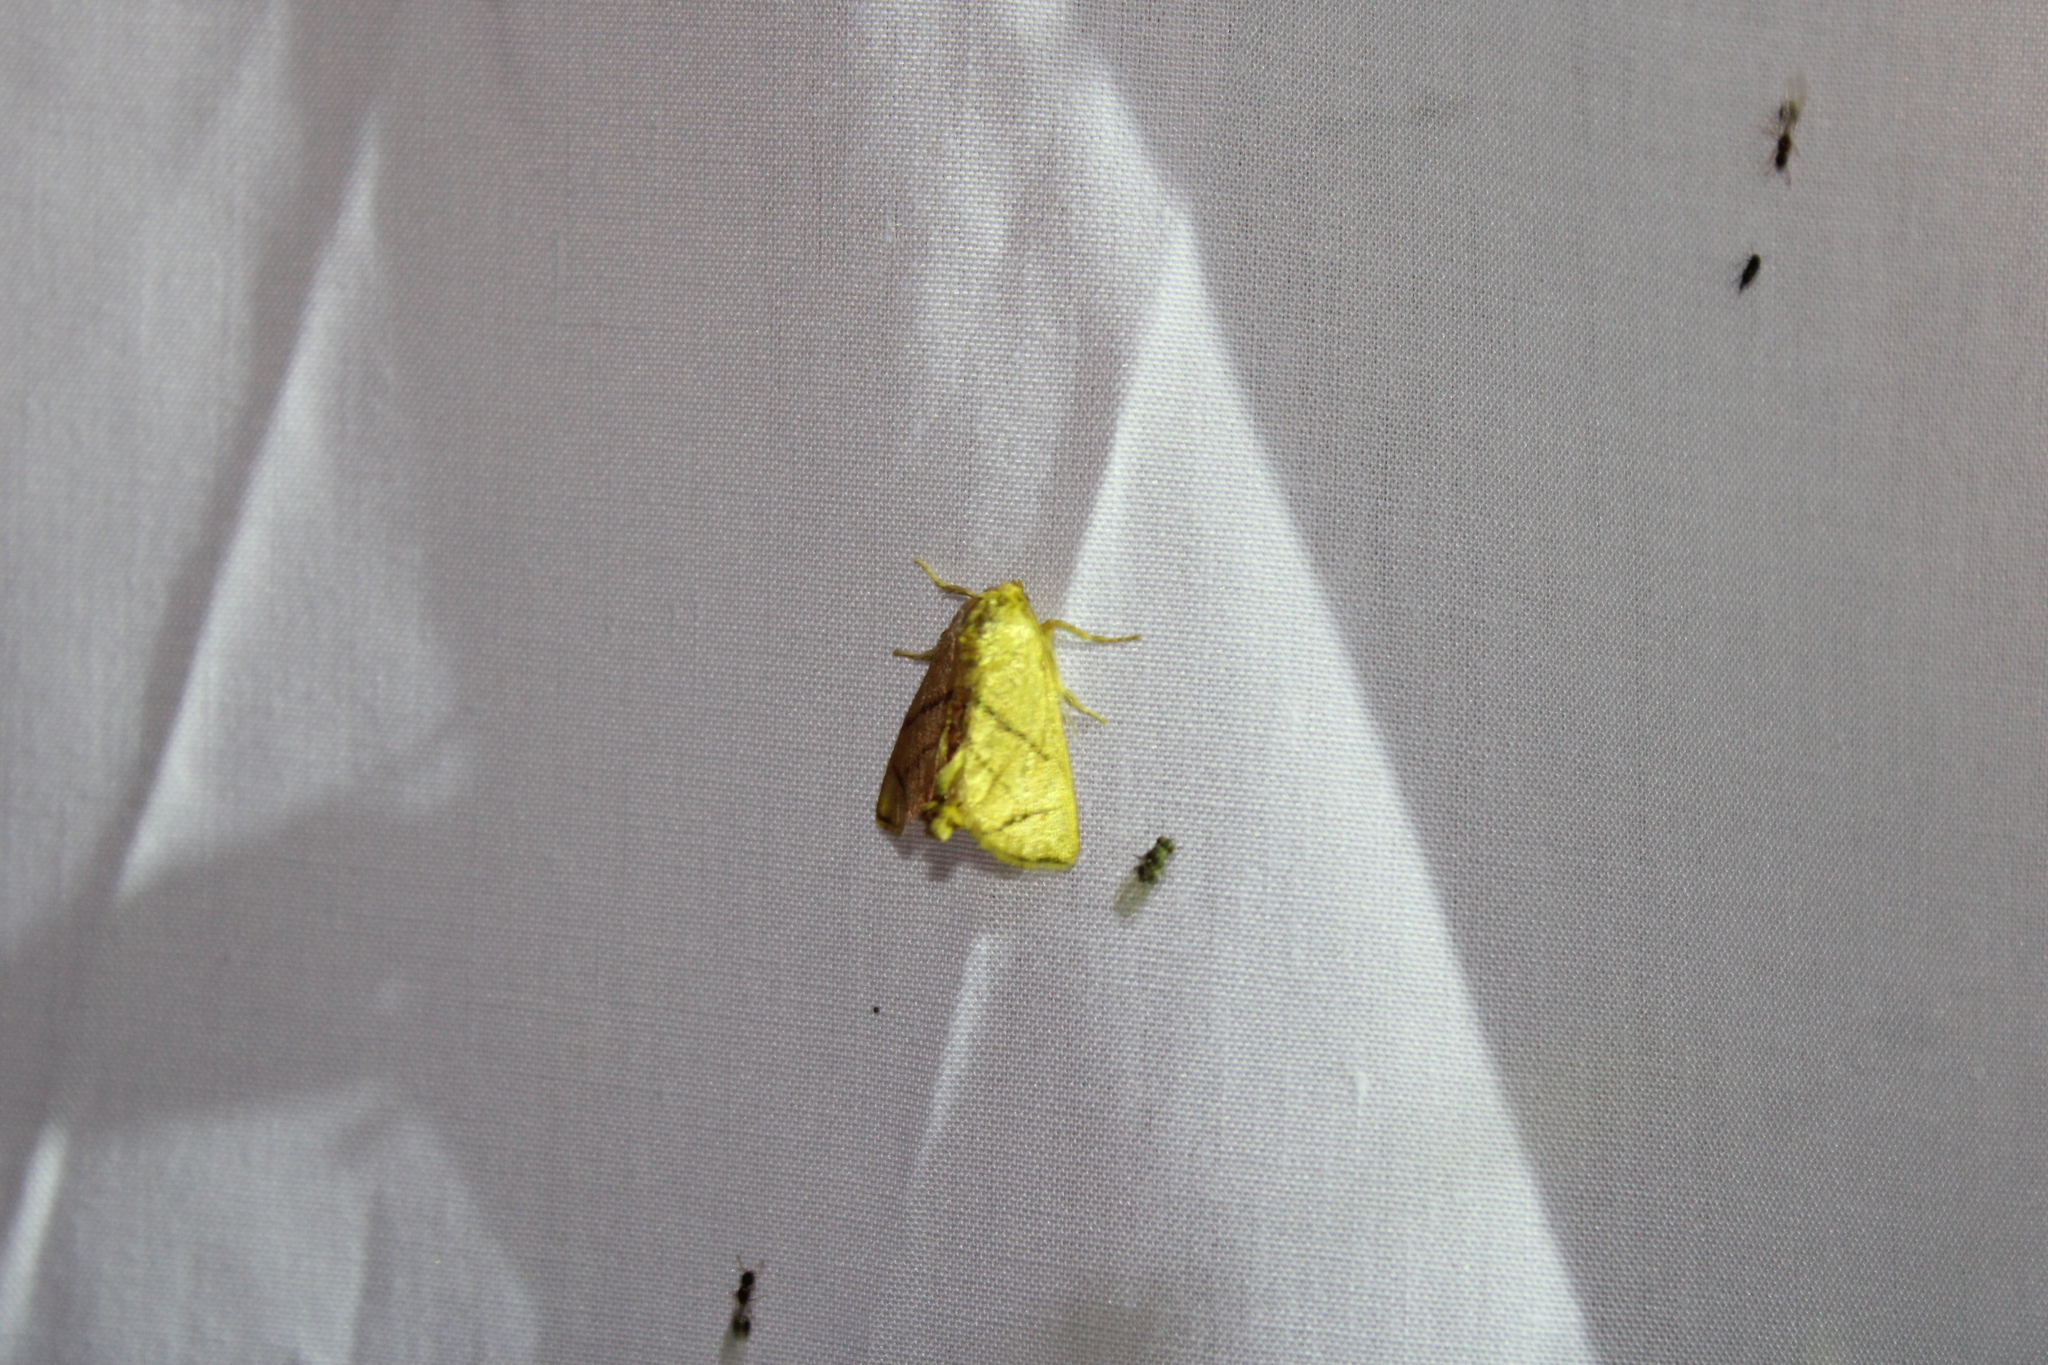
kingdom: Animalia
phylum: Arthropoda
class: Insecta
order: Lepidoptera
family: Limacodidae
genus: Apoda
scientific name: Apoda y-inversa
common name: Yellow-collared slug moth
